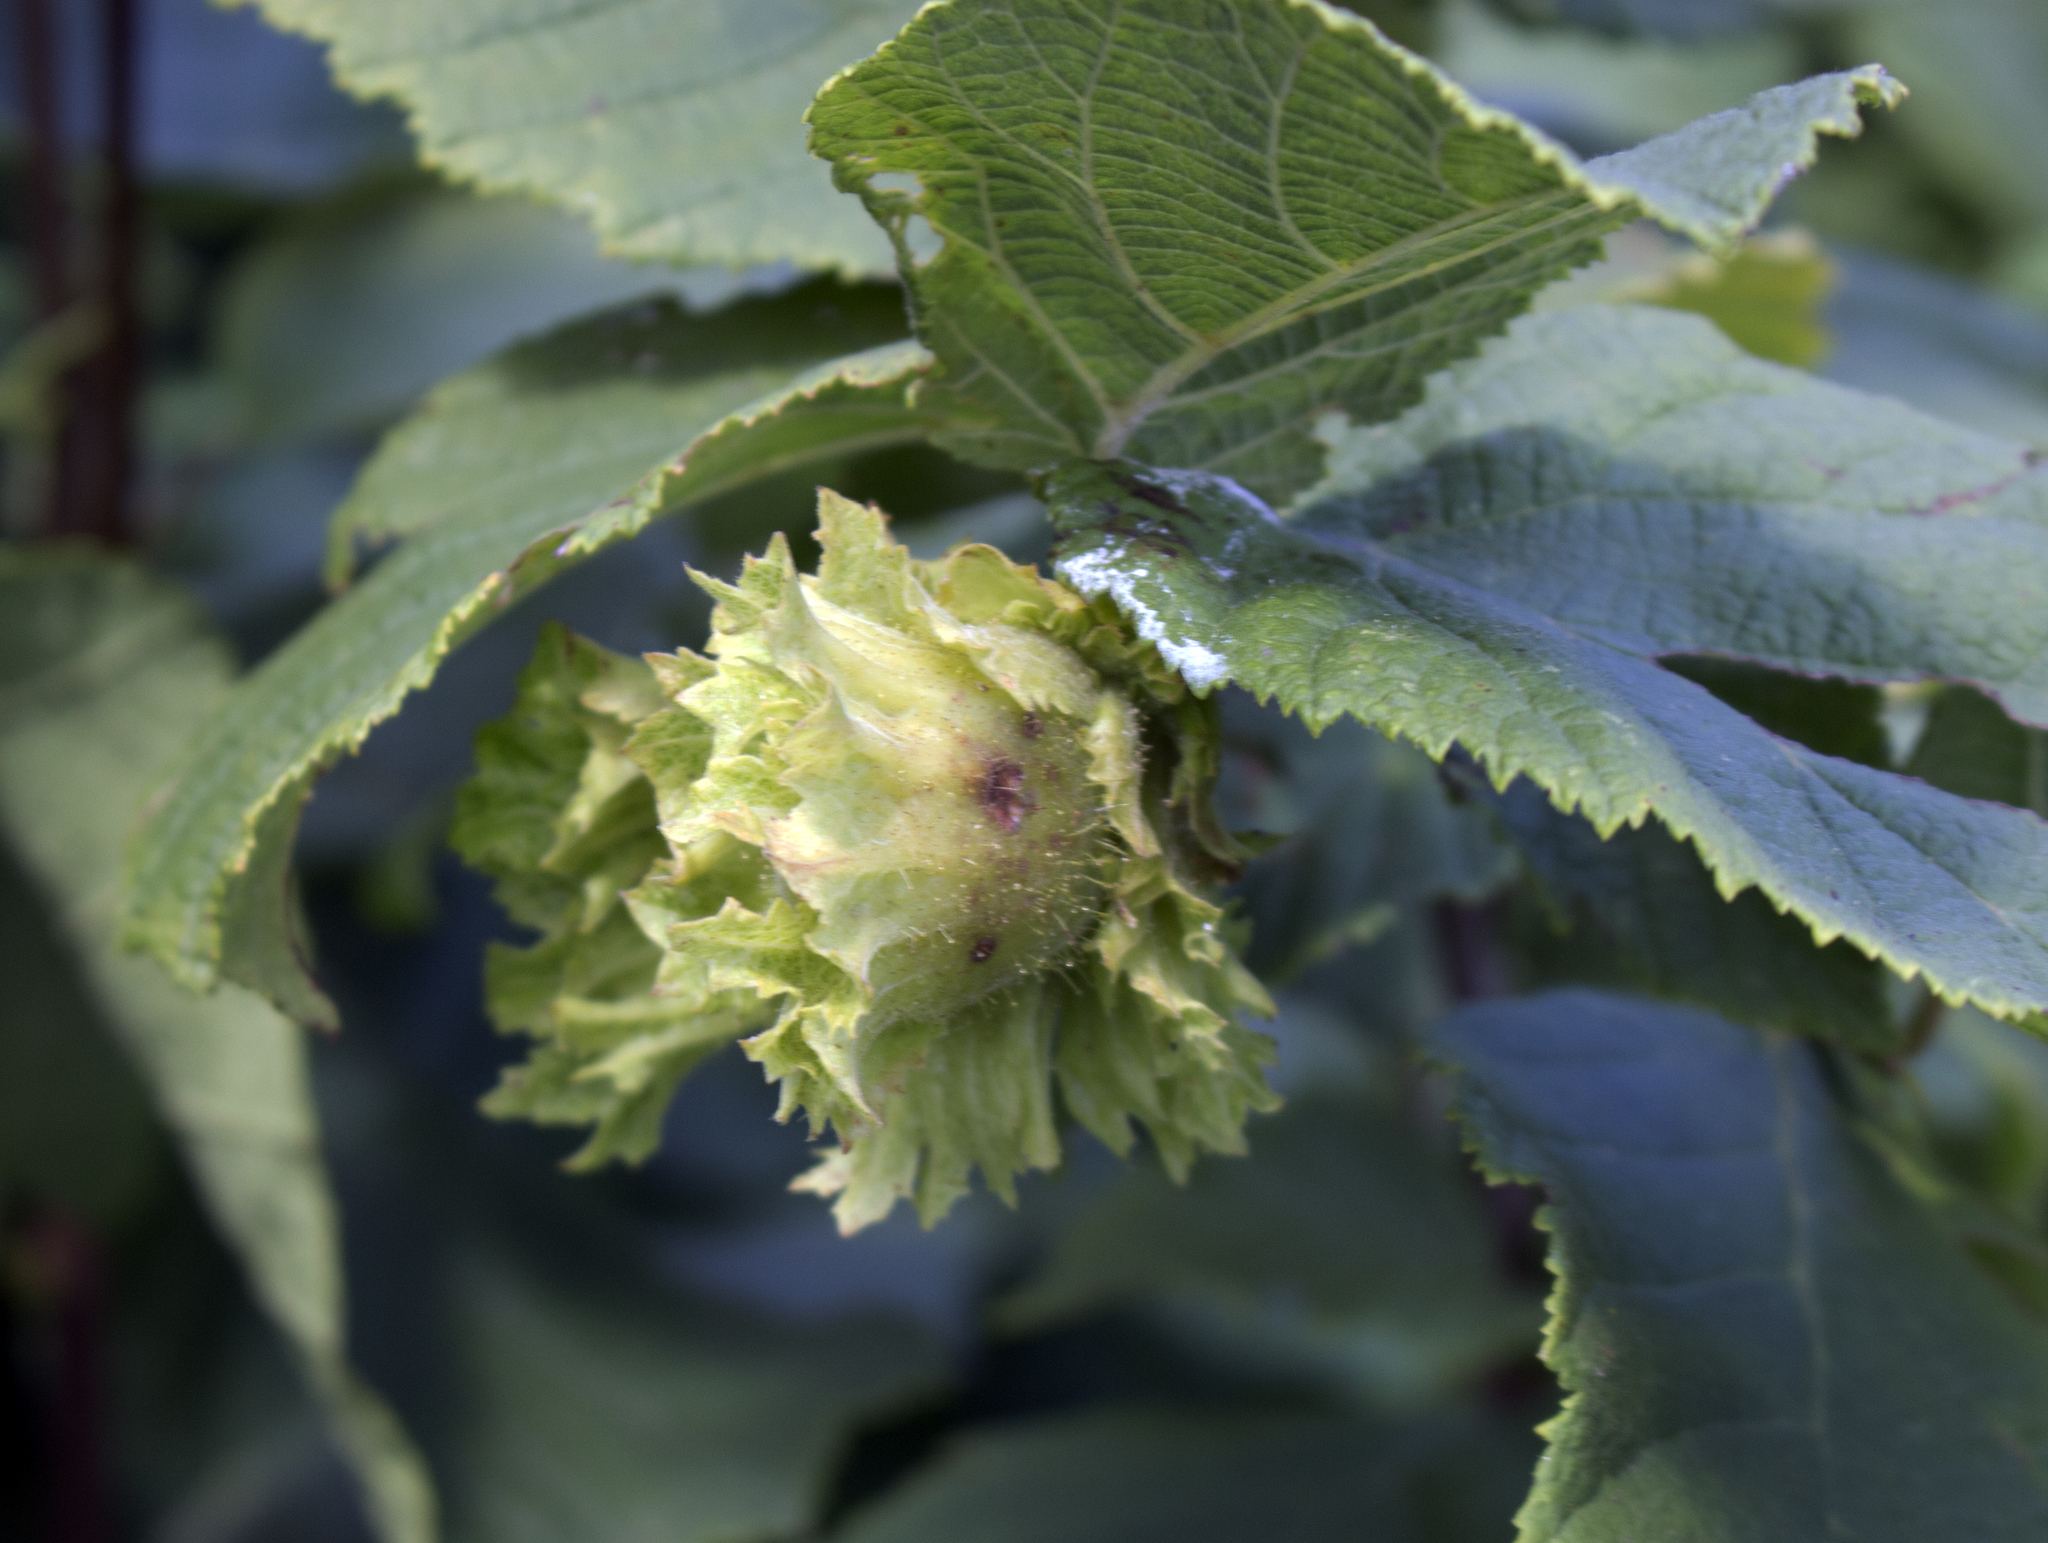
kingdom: Plantae
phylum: Tracheophyta
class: Magnoliopsida
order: Fagales
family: Betulaceae
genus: Corylus
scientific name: Corylus americana
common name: American hazel
